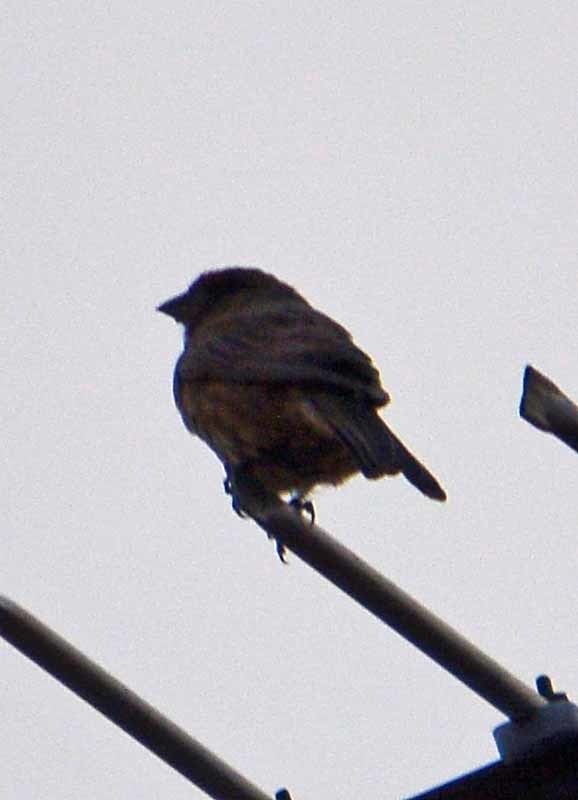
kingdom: Animalia
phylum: Chordata
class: Aves
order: Passeriformes
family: Fringillidae
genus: Haemorhous
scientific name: Haemorhous mexicanus
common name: House finch
